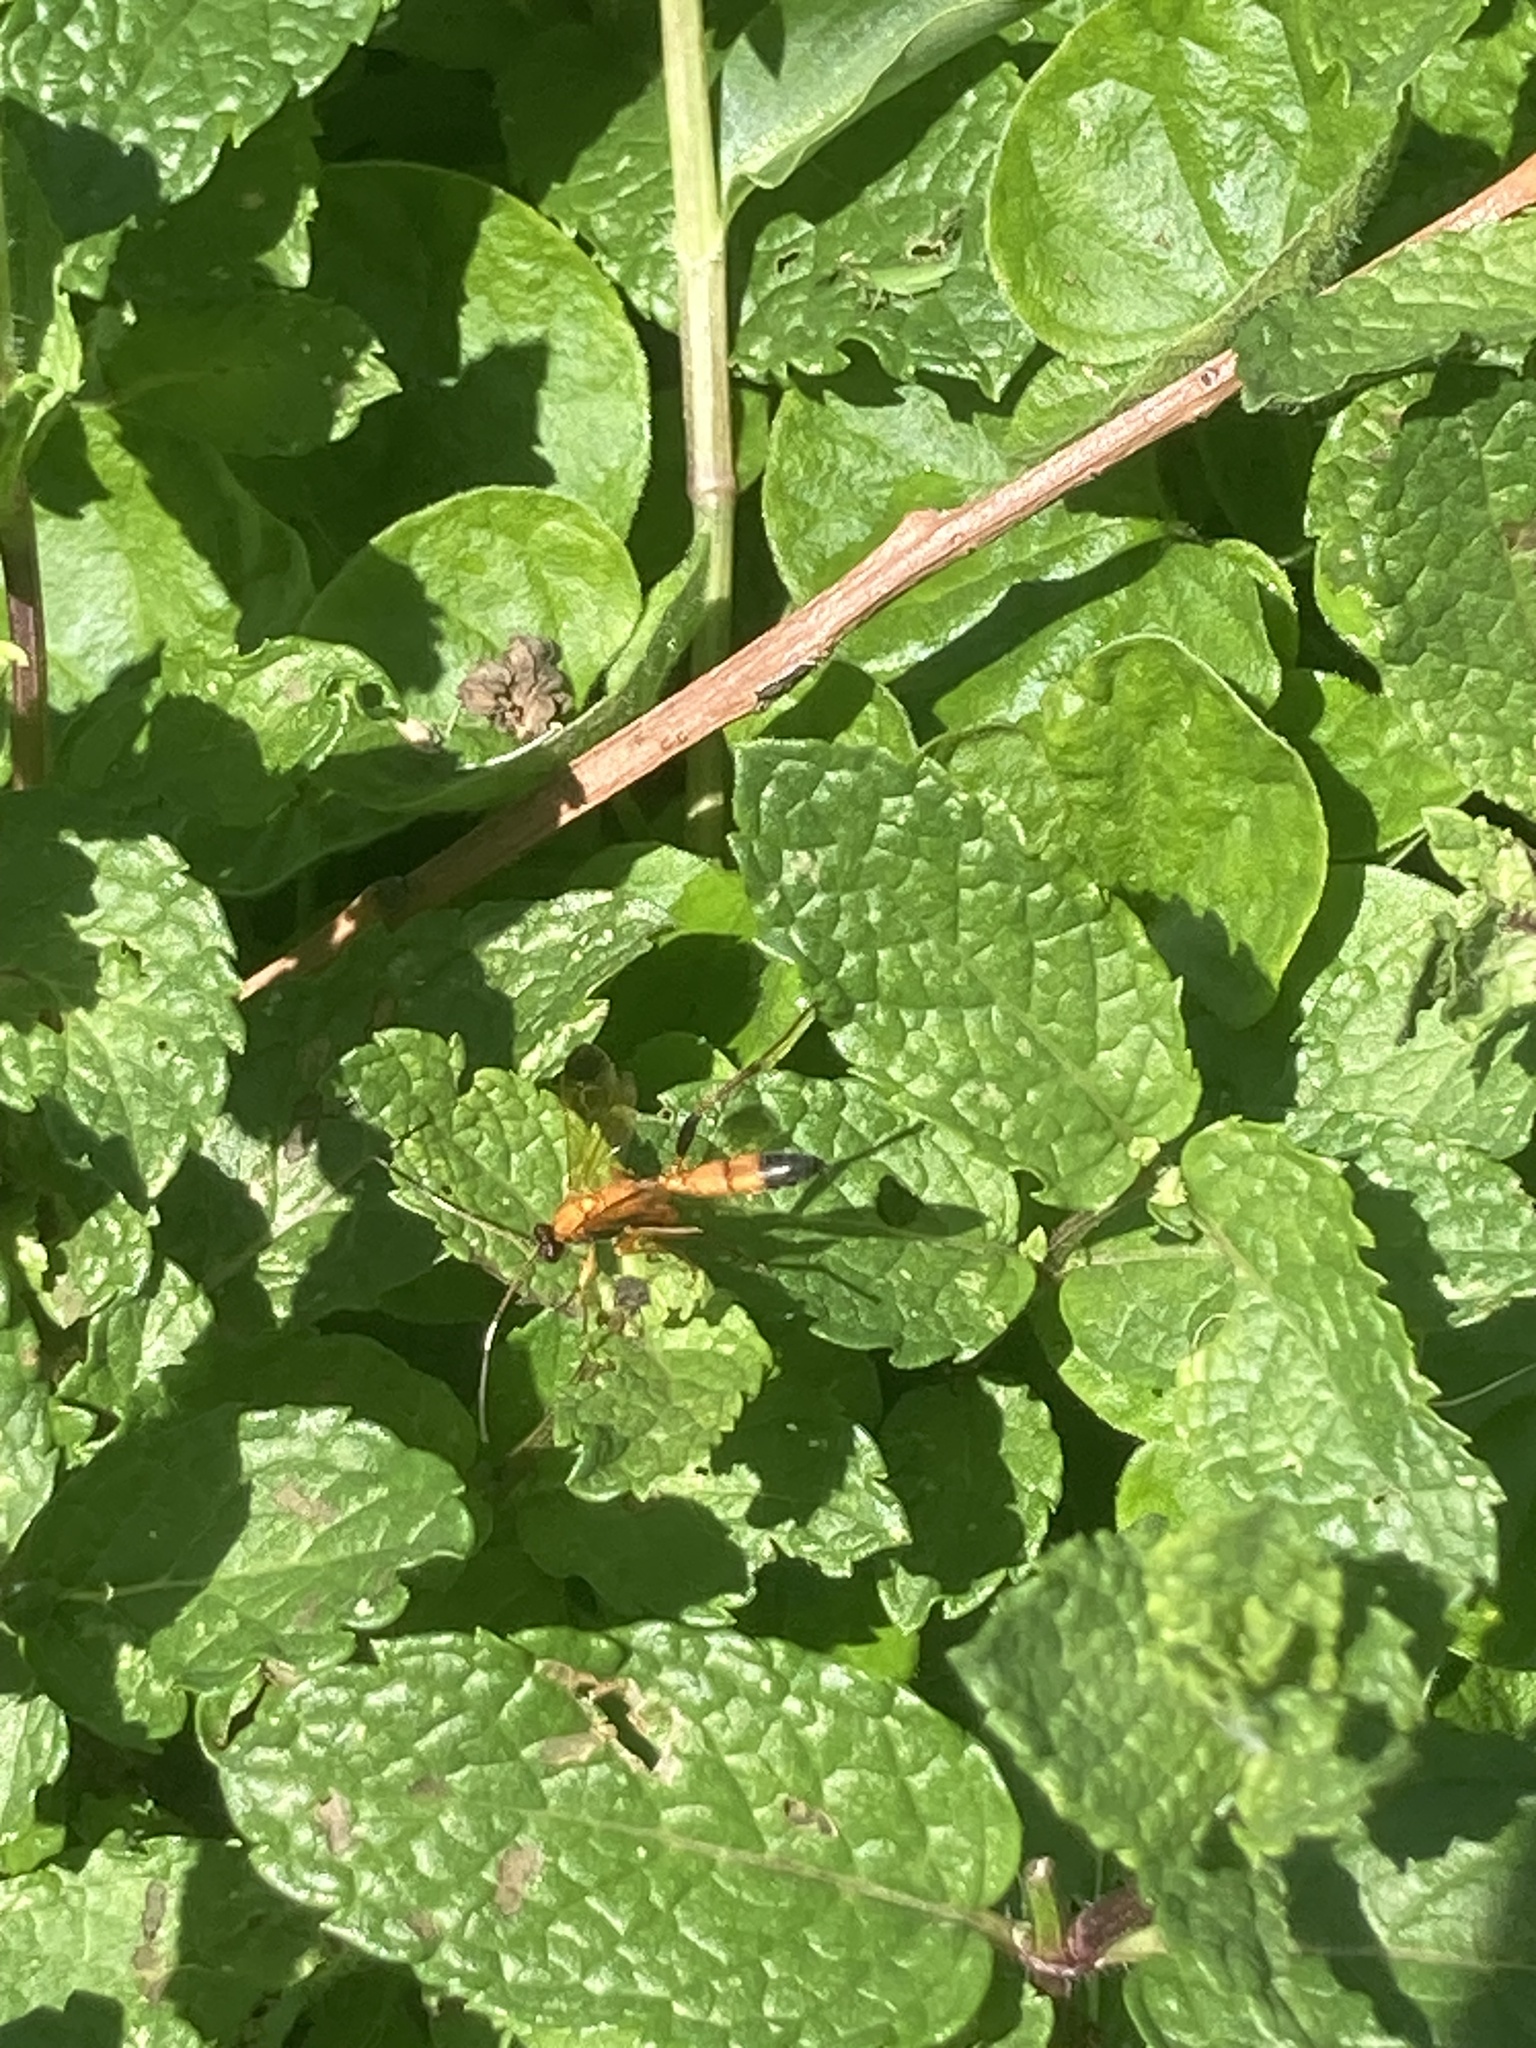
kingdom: Animalia
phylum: Arthropoda
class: Insecta
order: Hymenoptera
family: Ichneumonidae
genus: Ctenochares
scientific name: Ctenochares bicolorus
